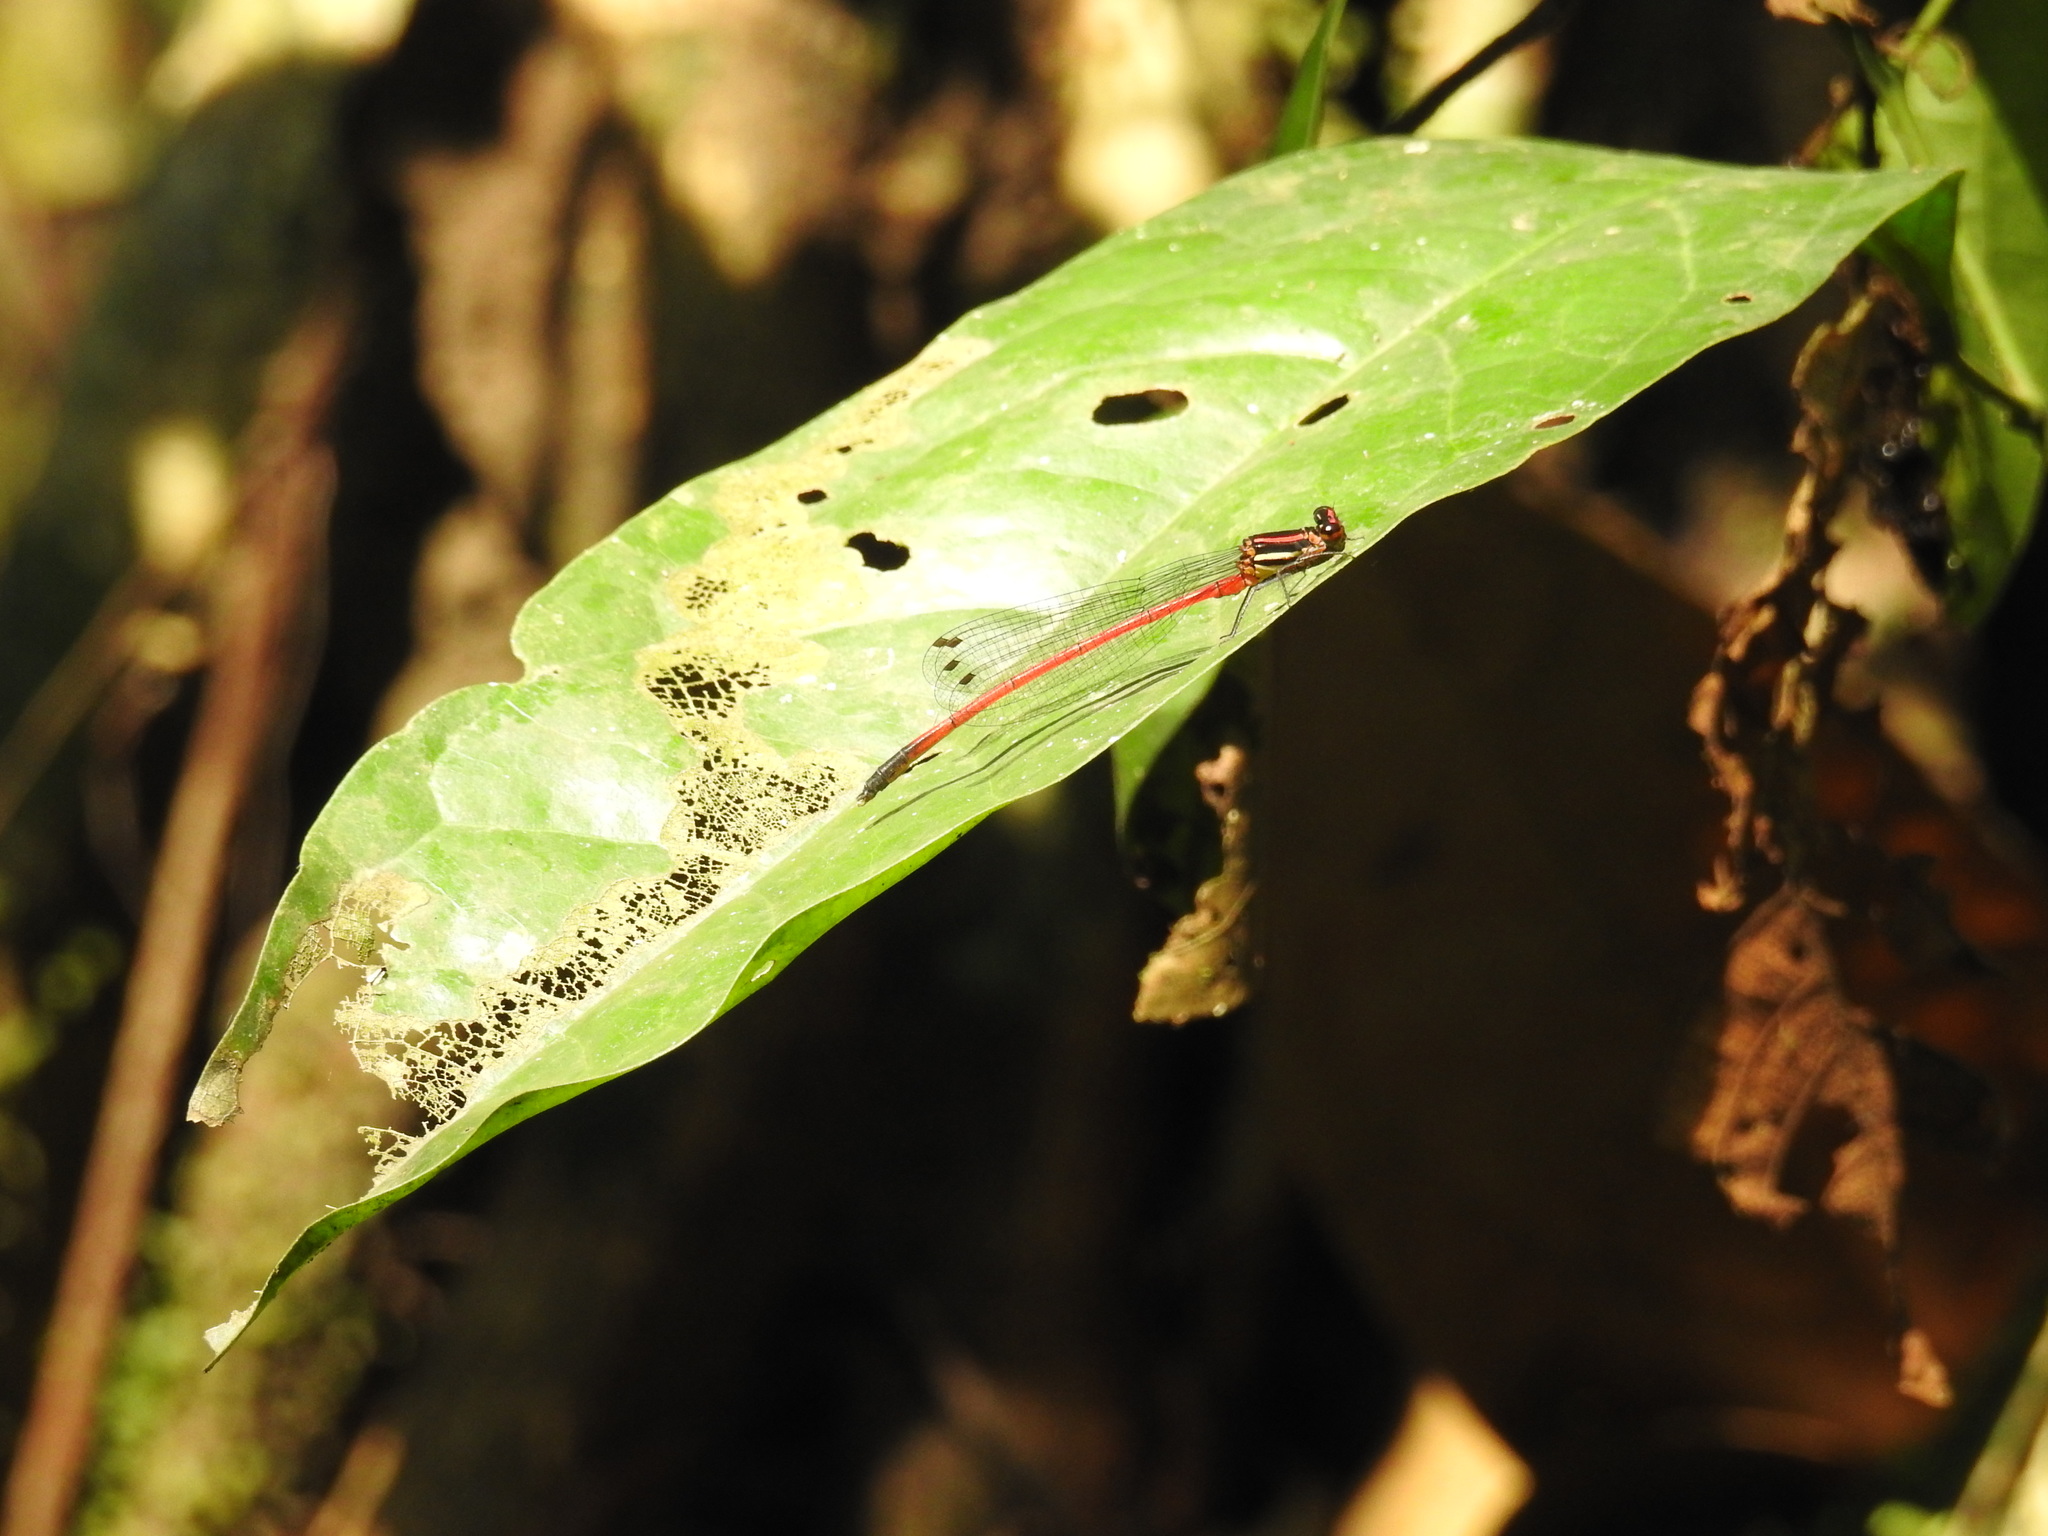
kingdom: Animalia
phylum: Arthropoda
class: Insecta
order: Odonata
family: Platycnemididae
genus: Calicnemia
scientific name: Calicnemia miniata
